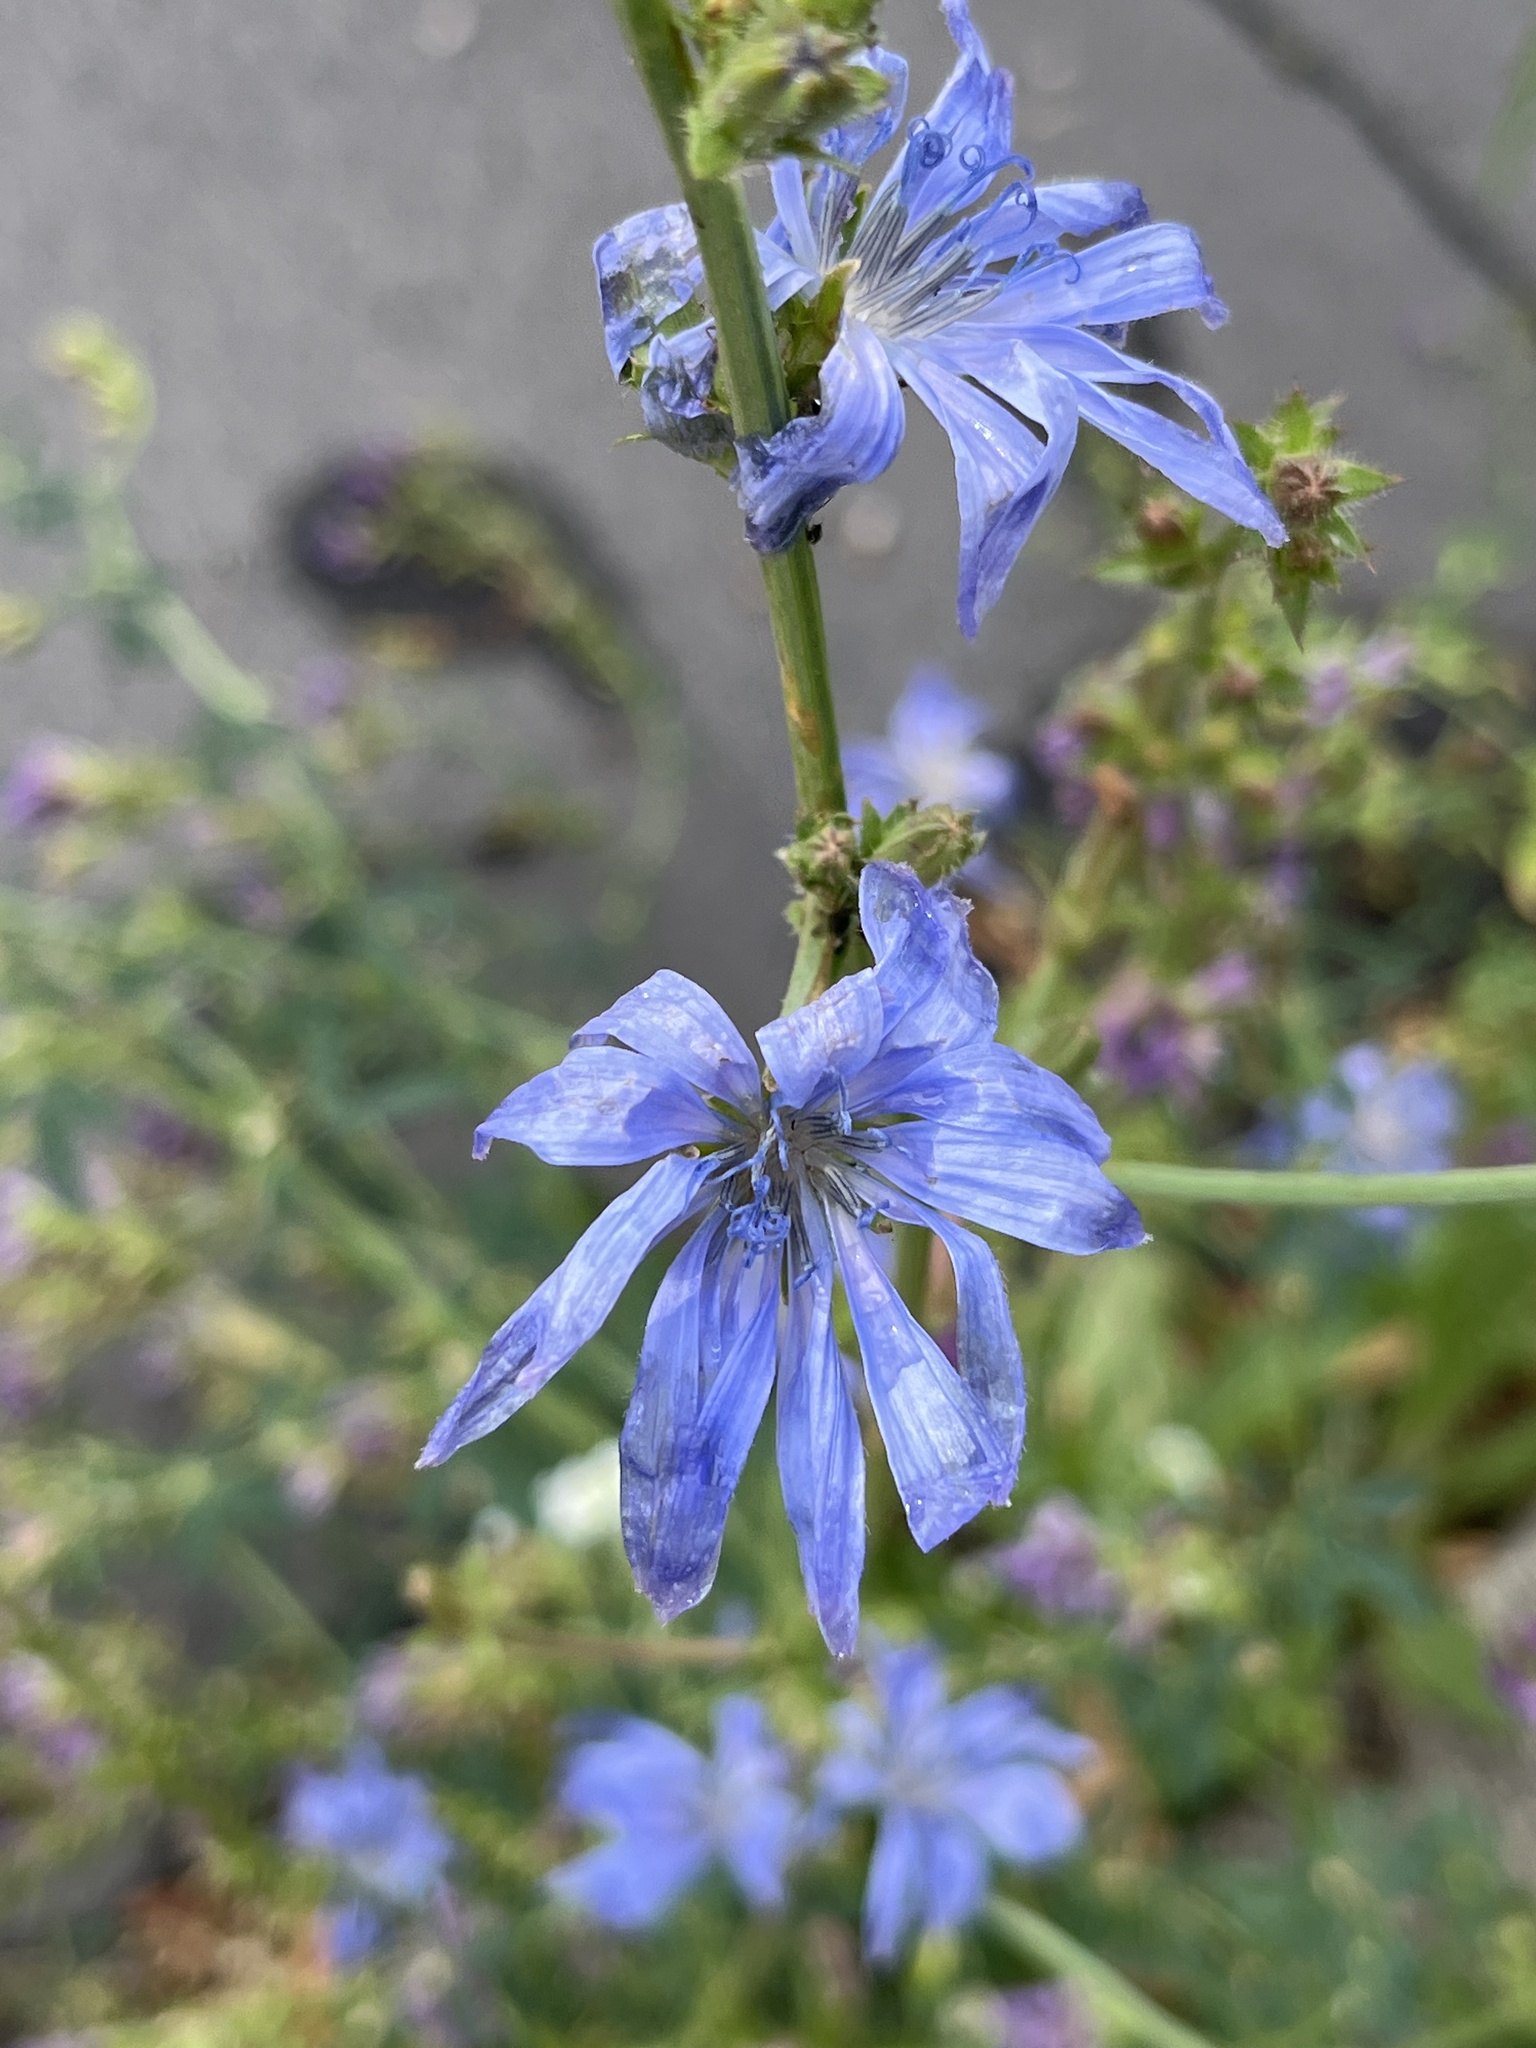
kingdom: Plantae
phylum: Tracheophyta
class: Magnoliopsida
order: Asterales
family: Asteraceae
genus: Cichorium
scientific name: Cichorium intybus
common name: Chicory
